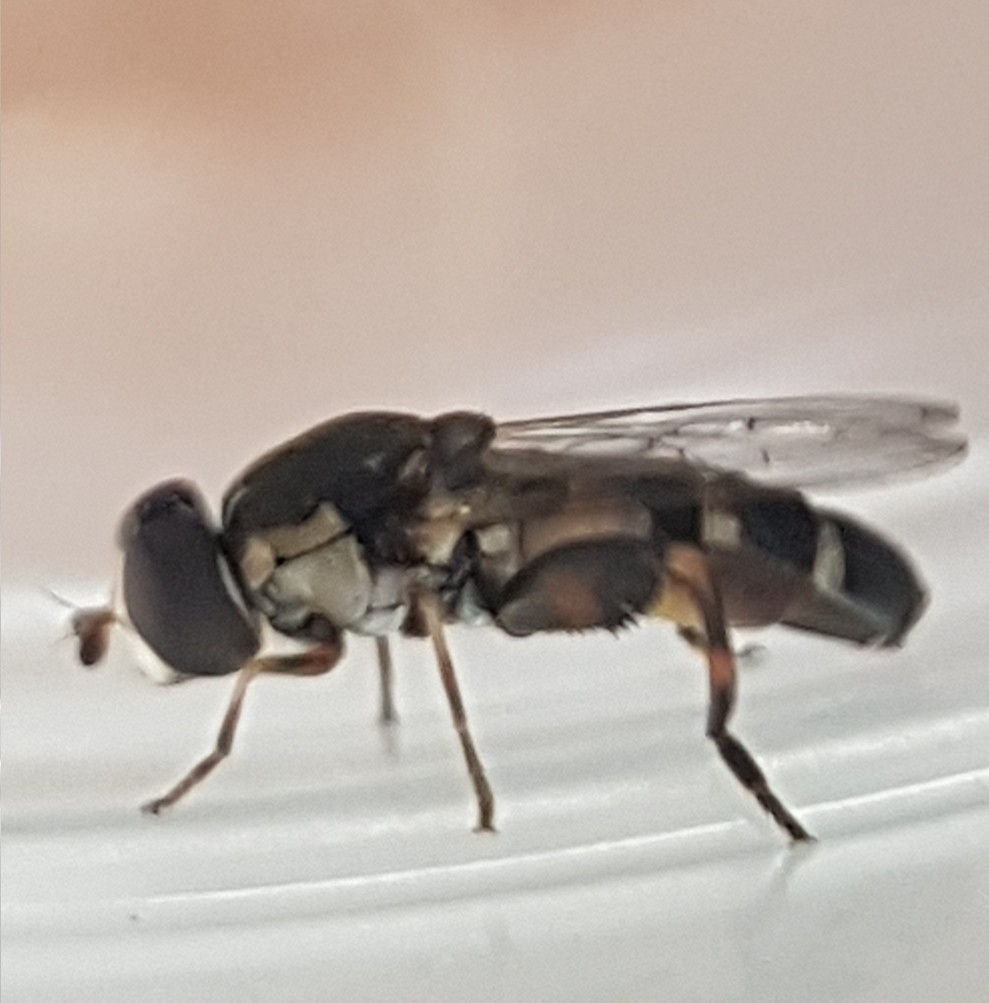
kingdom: Animalia
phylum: Arthropoda
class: Insecta
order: Diptera
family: Syrphidae
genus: Syritta
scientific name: Syritta pipiens
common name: Hover fly
